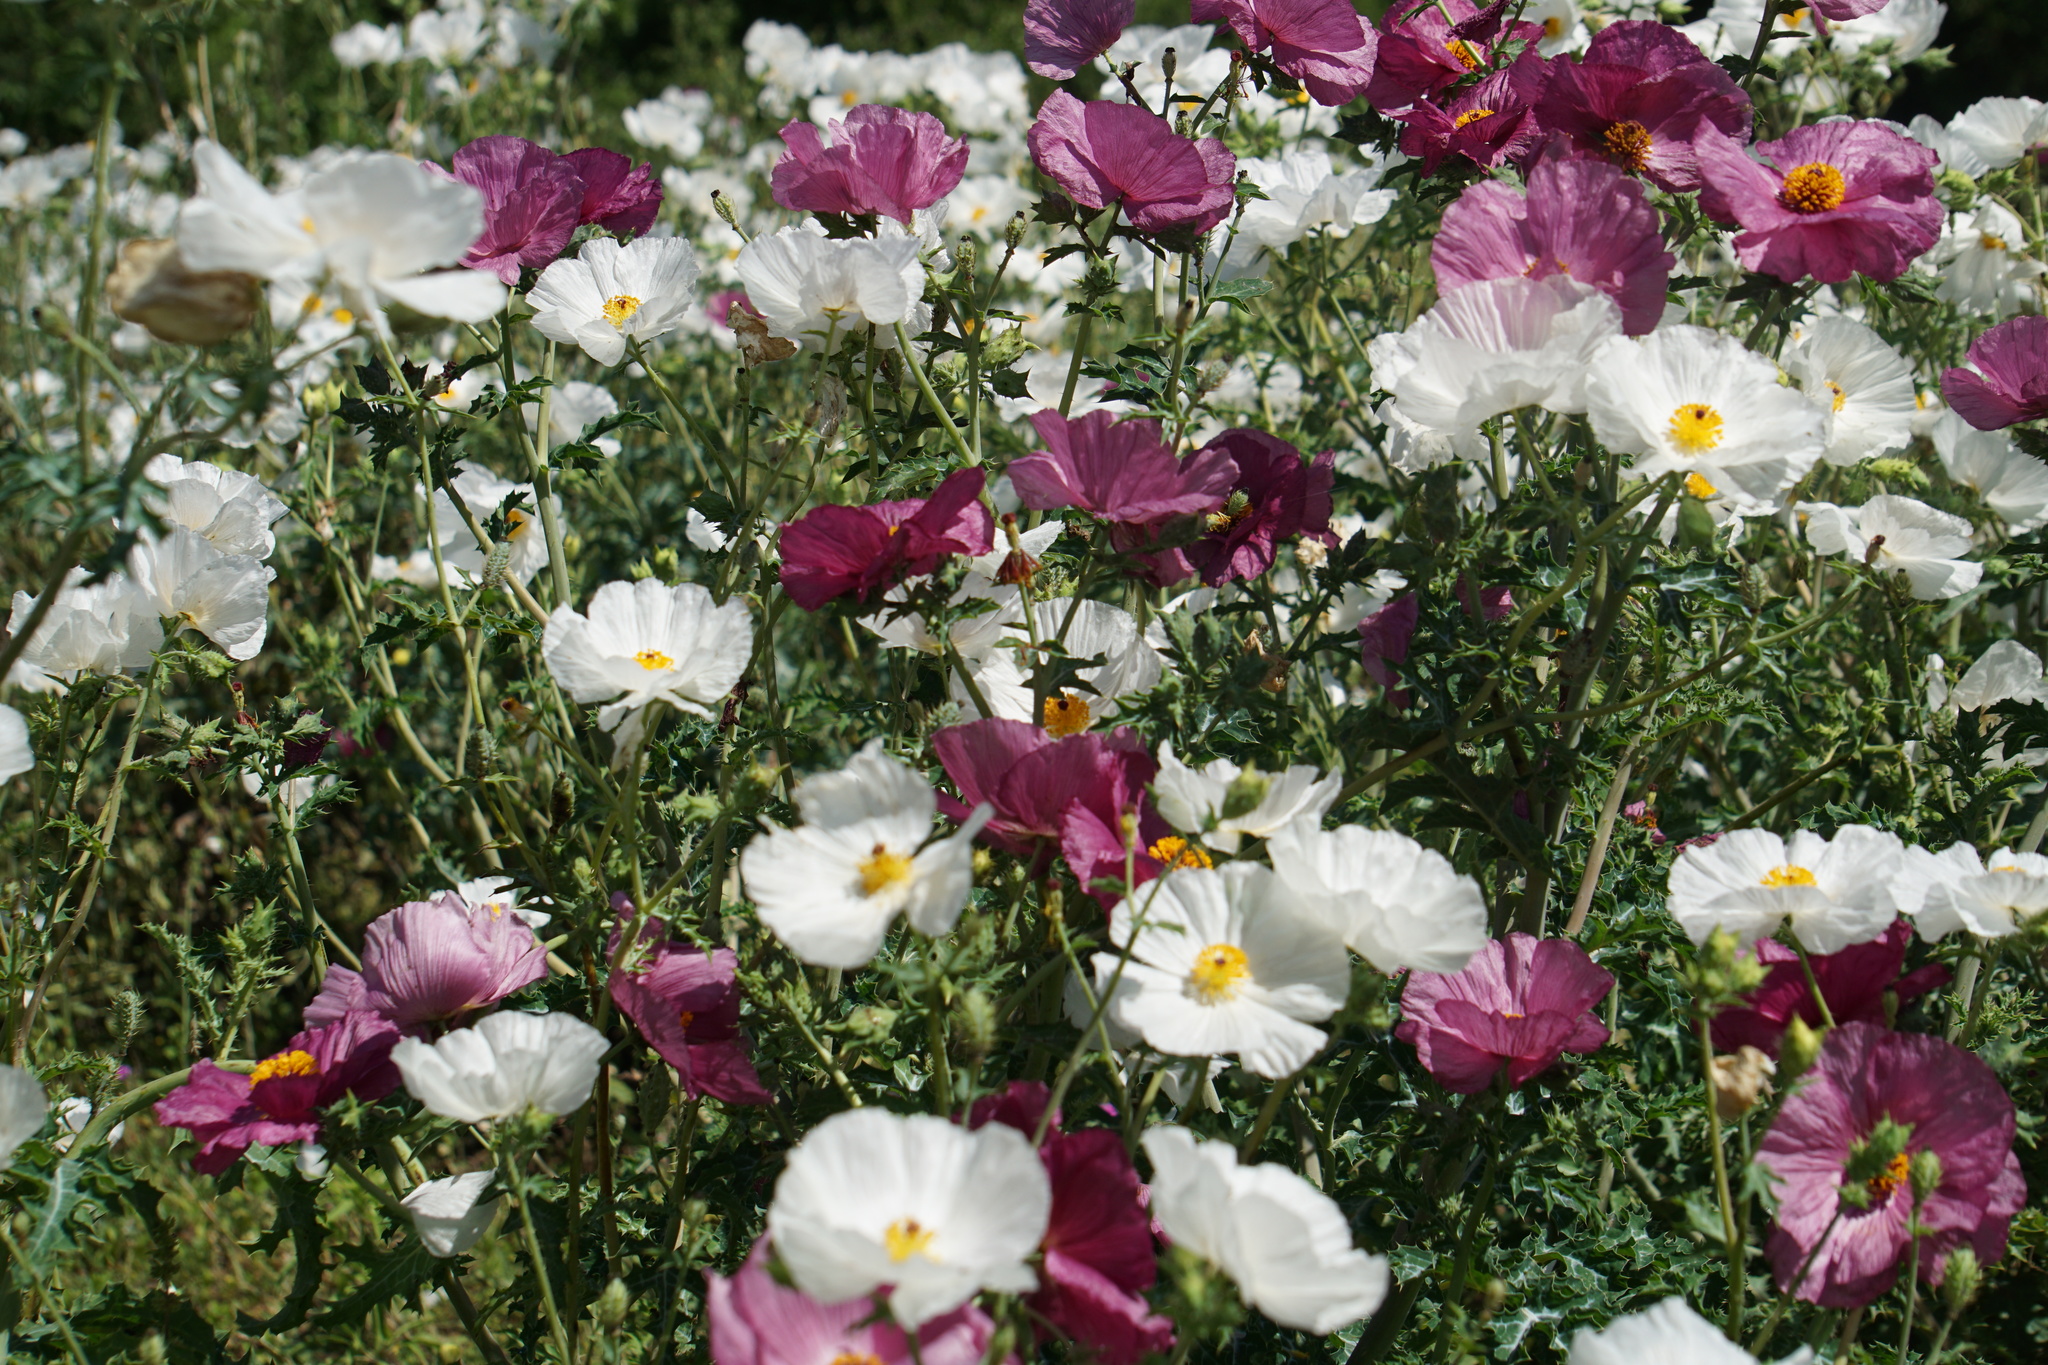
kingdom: Plantae
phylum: Tracheophyta
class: Magnoliopsida
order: Ranunculales
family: Papaveraceae
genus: Argemone
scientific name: Argemone sanguinea
